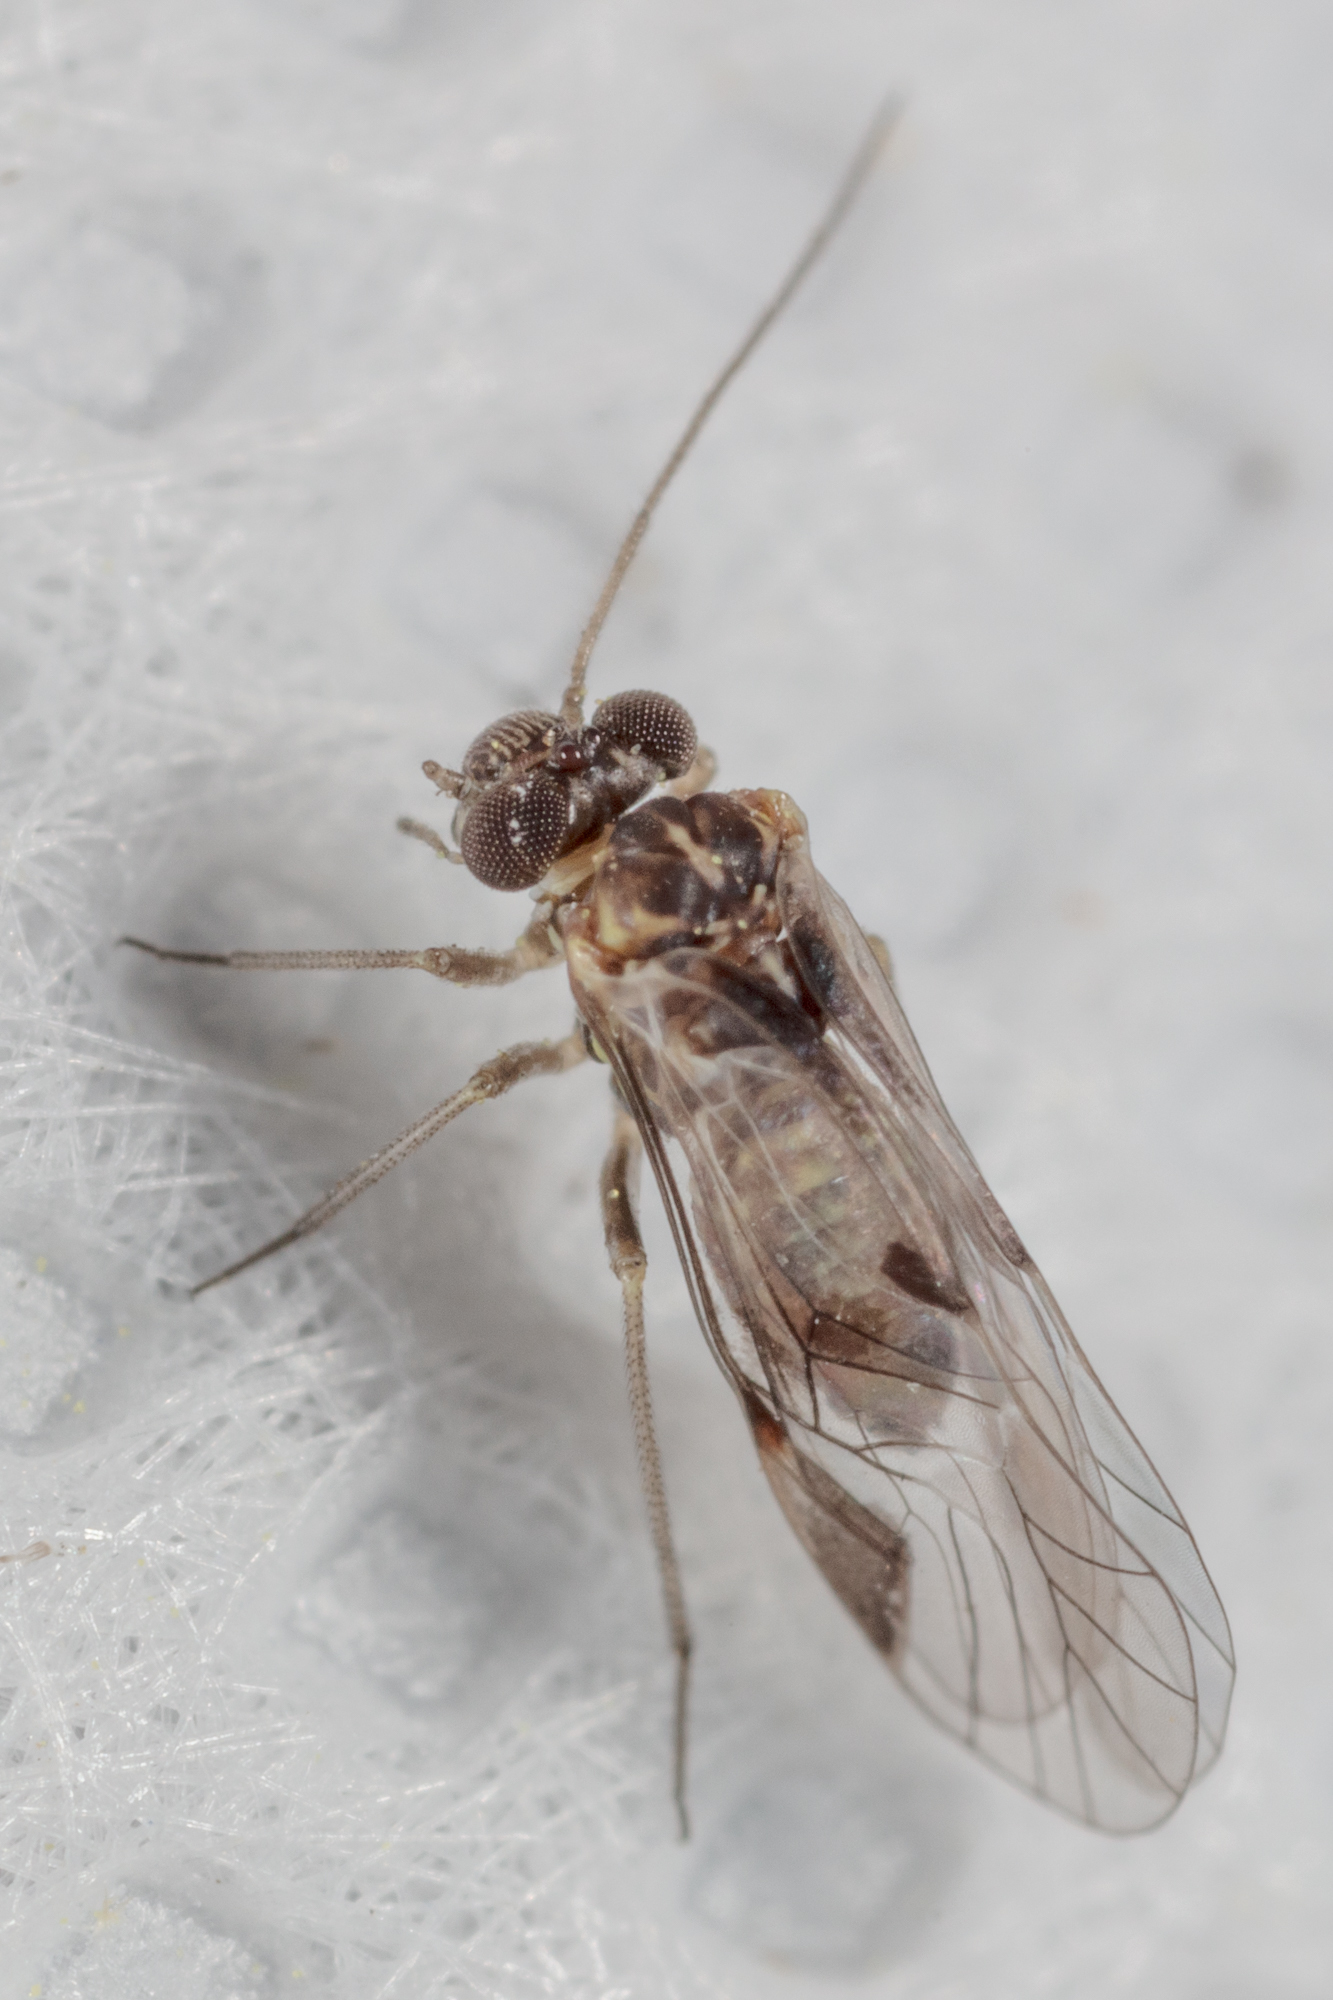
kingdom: Animalia
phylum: Arthropoda
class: Insecta
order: Psocodea
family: Psocidae
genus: Indiopsocus
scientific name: Indiopsocus bisignatus
